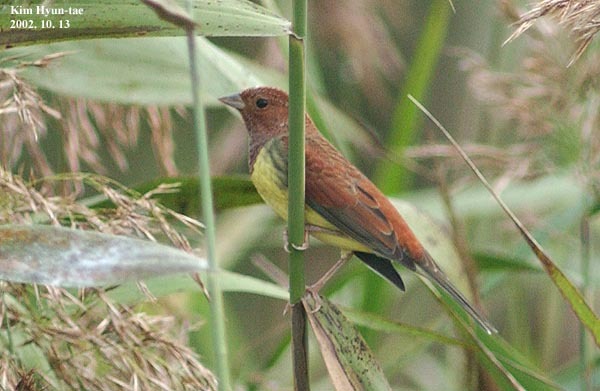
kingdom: Animalia
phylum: Chordata
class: Aves
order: Passeriformes
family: Emberizidae
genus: Emberiza
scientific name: Emberiza rutila
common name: Chestnut bunting
